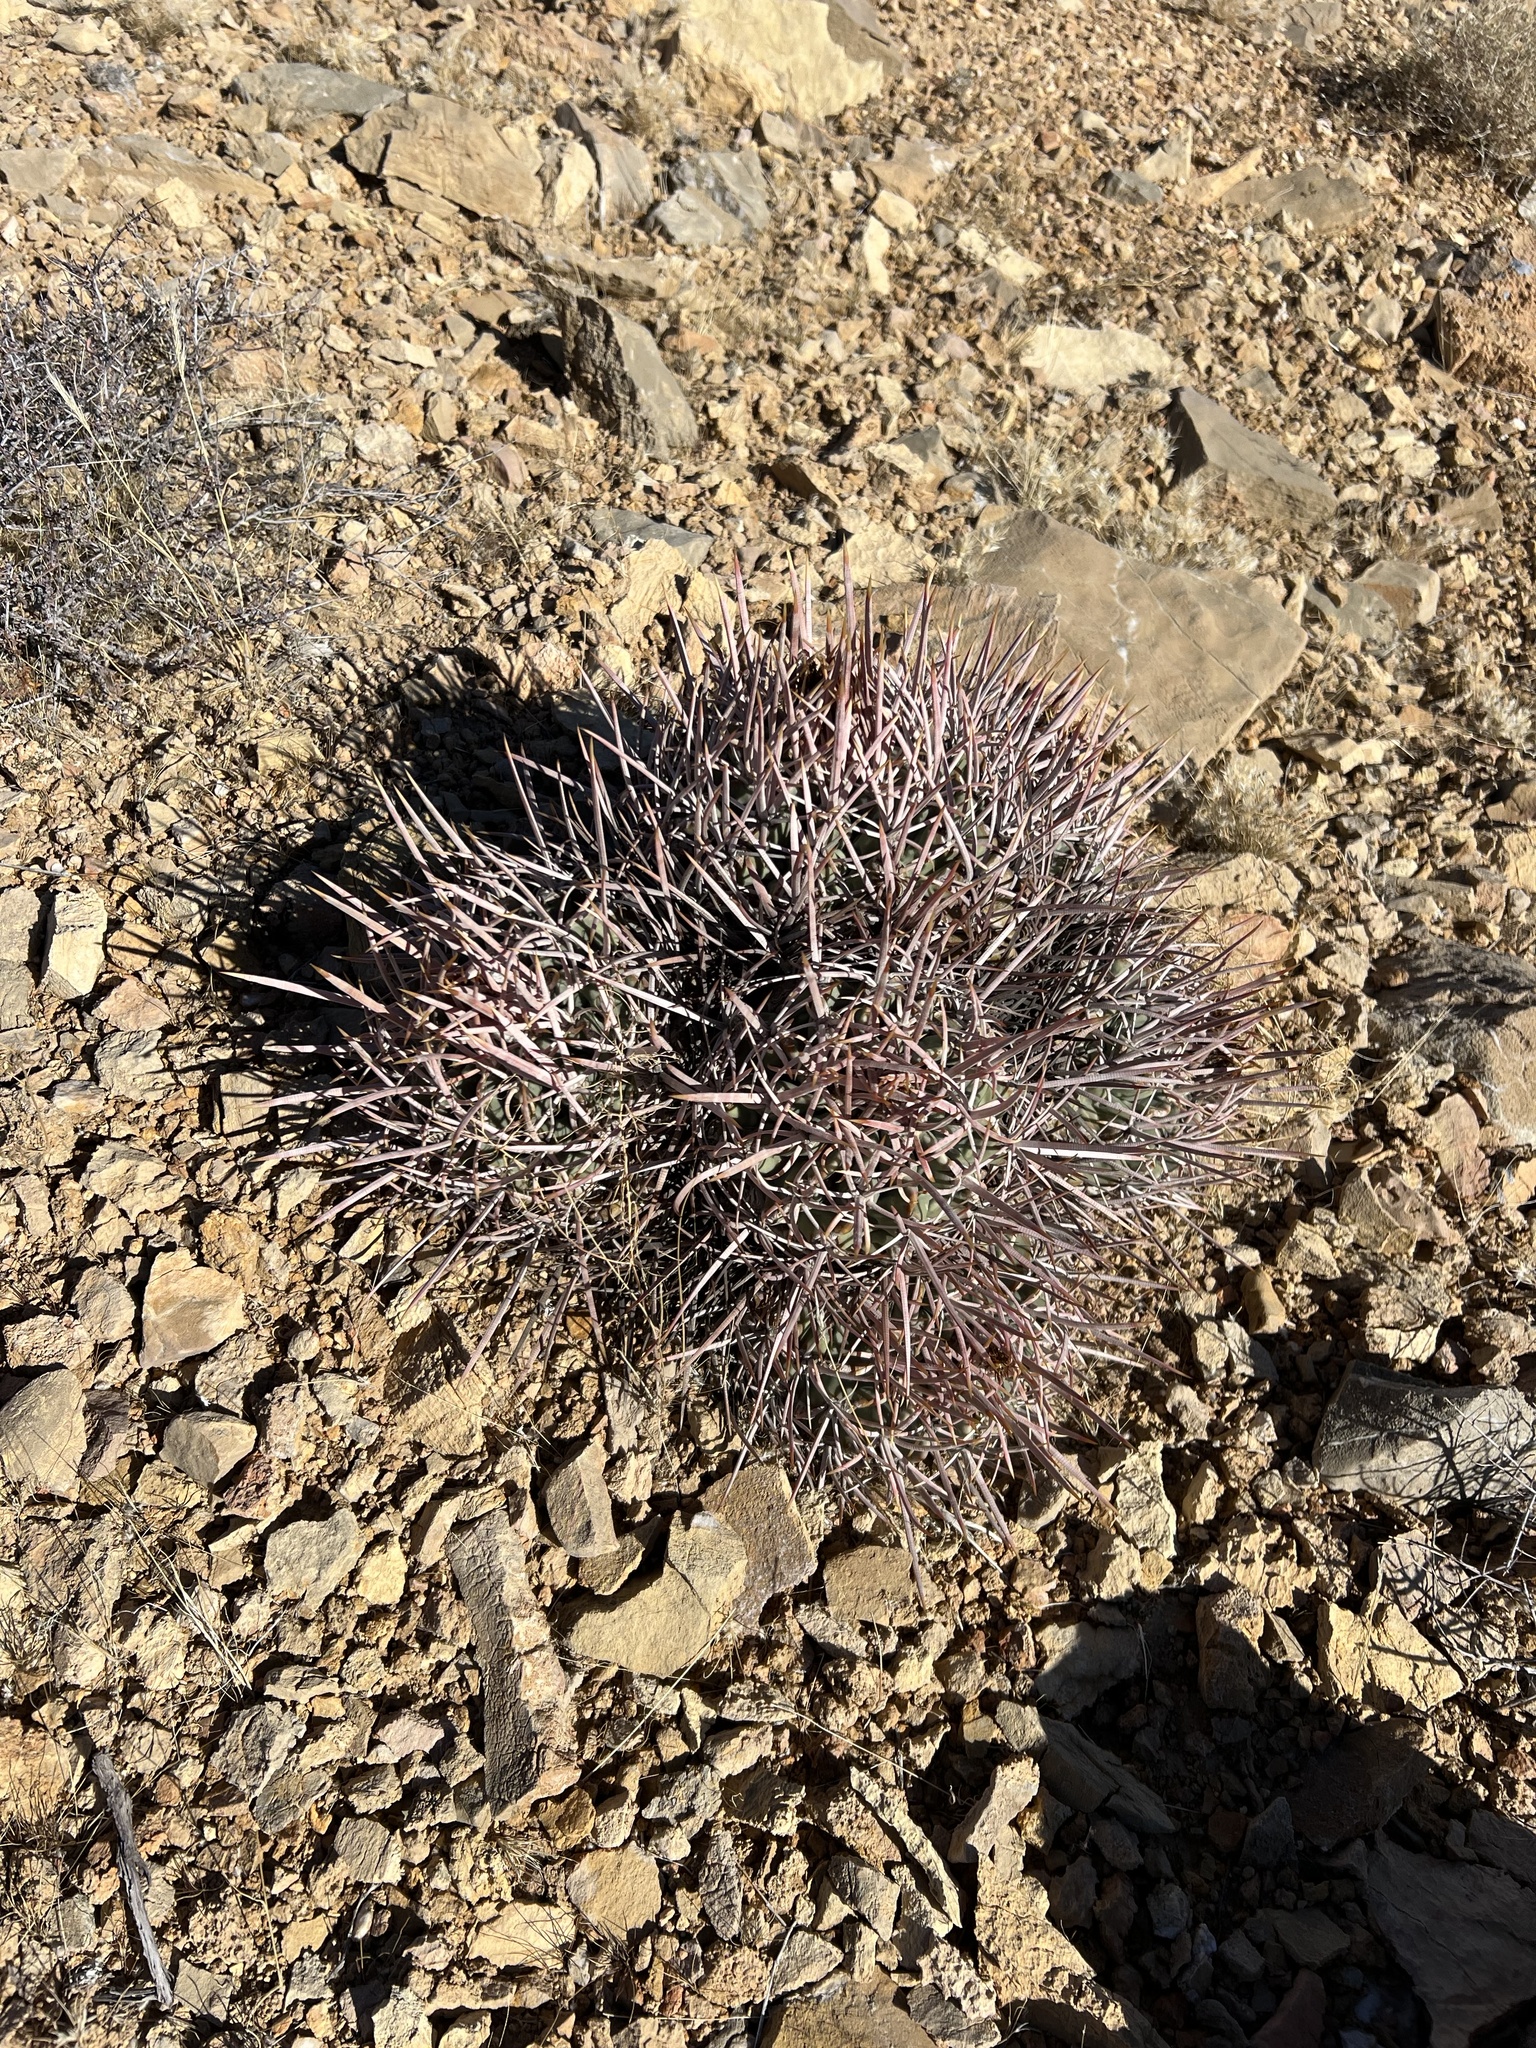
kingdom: Plantae
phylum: Tracheophyta
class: Magnoliopsida
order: Caryophyllales
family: Cactaceae
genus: Echinocactus
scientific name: Echinocactus polycephalus
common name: Cottontop cactus
